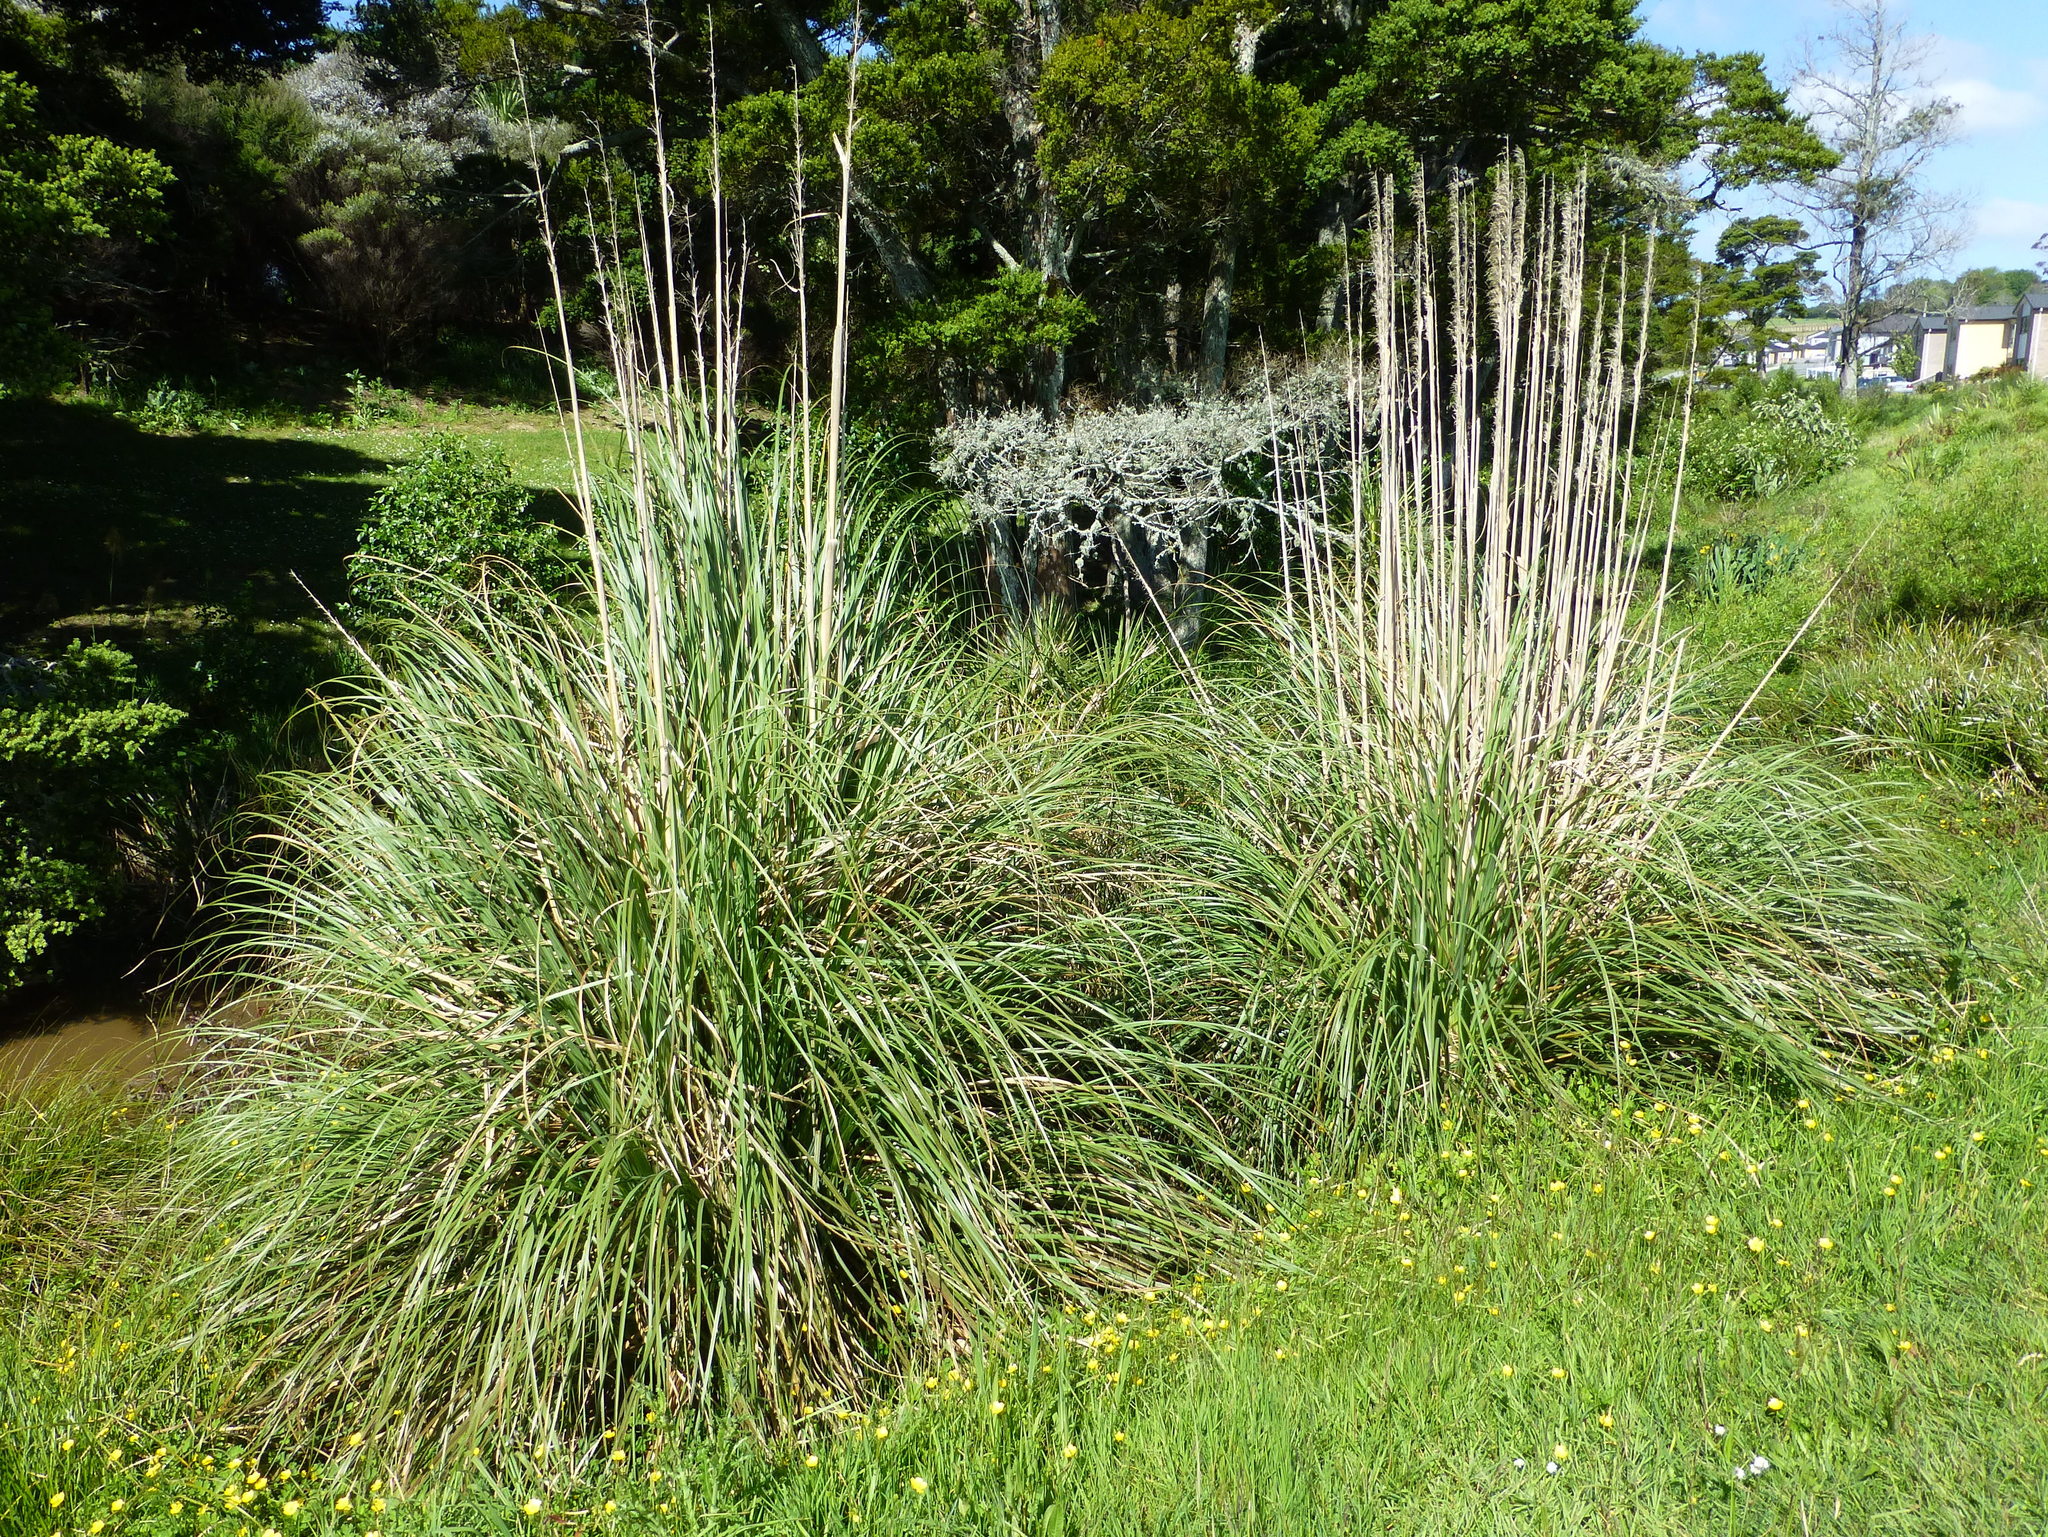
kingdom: Plantae
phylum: Tracheophyta
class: Liliopsida
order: Poales
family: Poaceae
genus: Cortaderia
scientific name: Cortaderia selloana
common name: Uruguayan pampas grass
